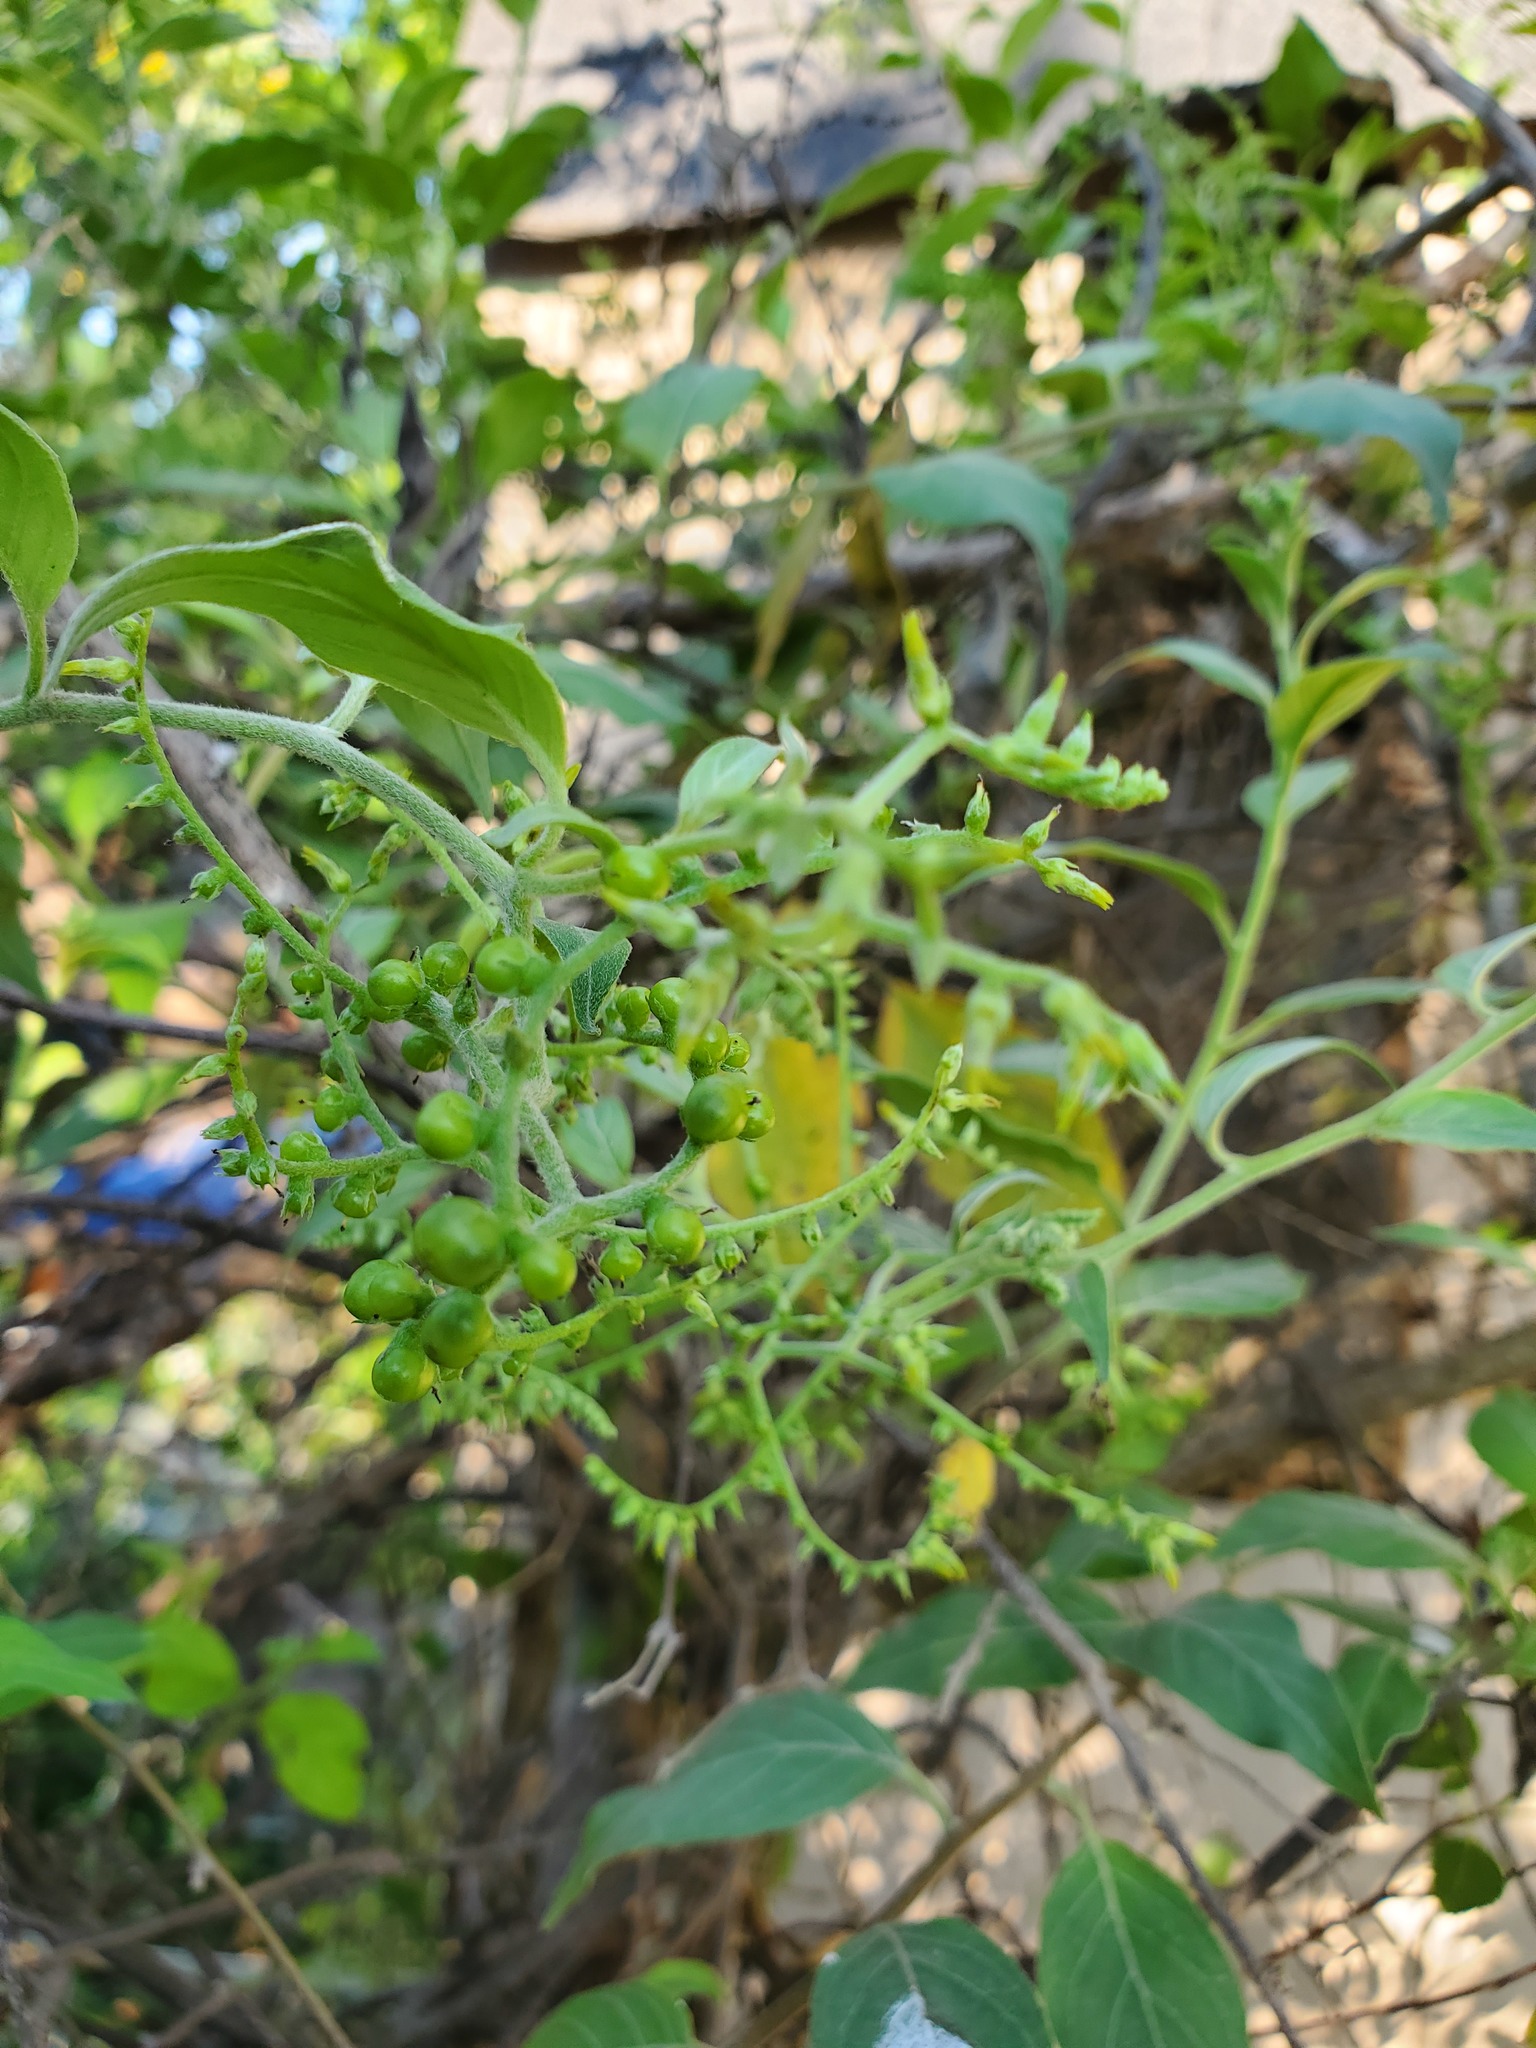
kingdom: Plantae
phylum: Tracheophyta
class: Magnoliopsida
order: Boraginales
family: Heliotropiaceae
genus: Myriopus
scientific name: Myriopus volubilis
